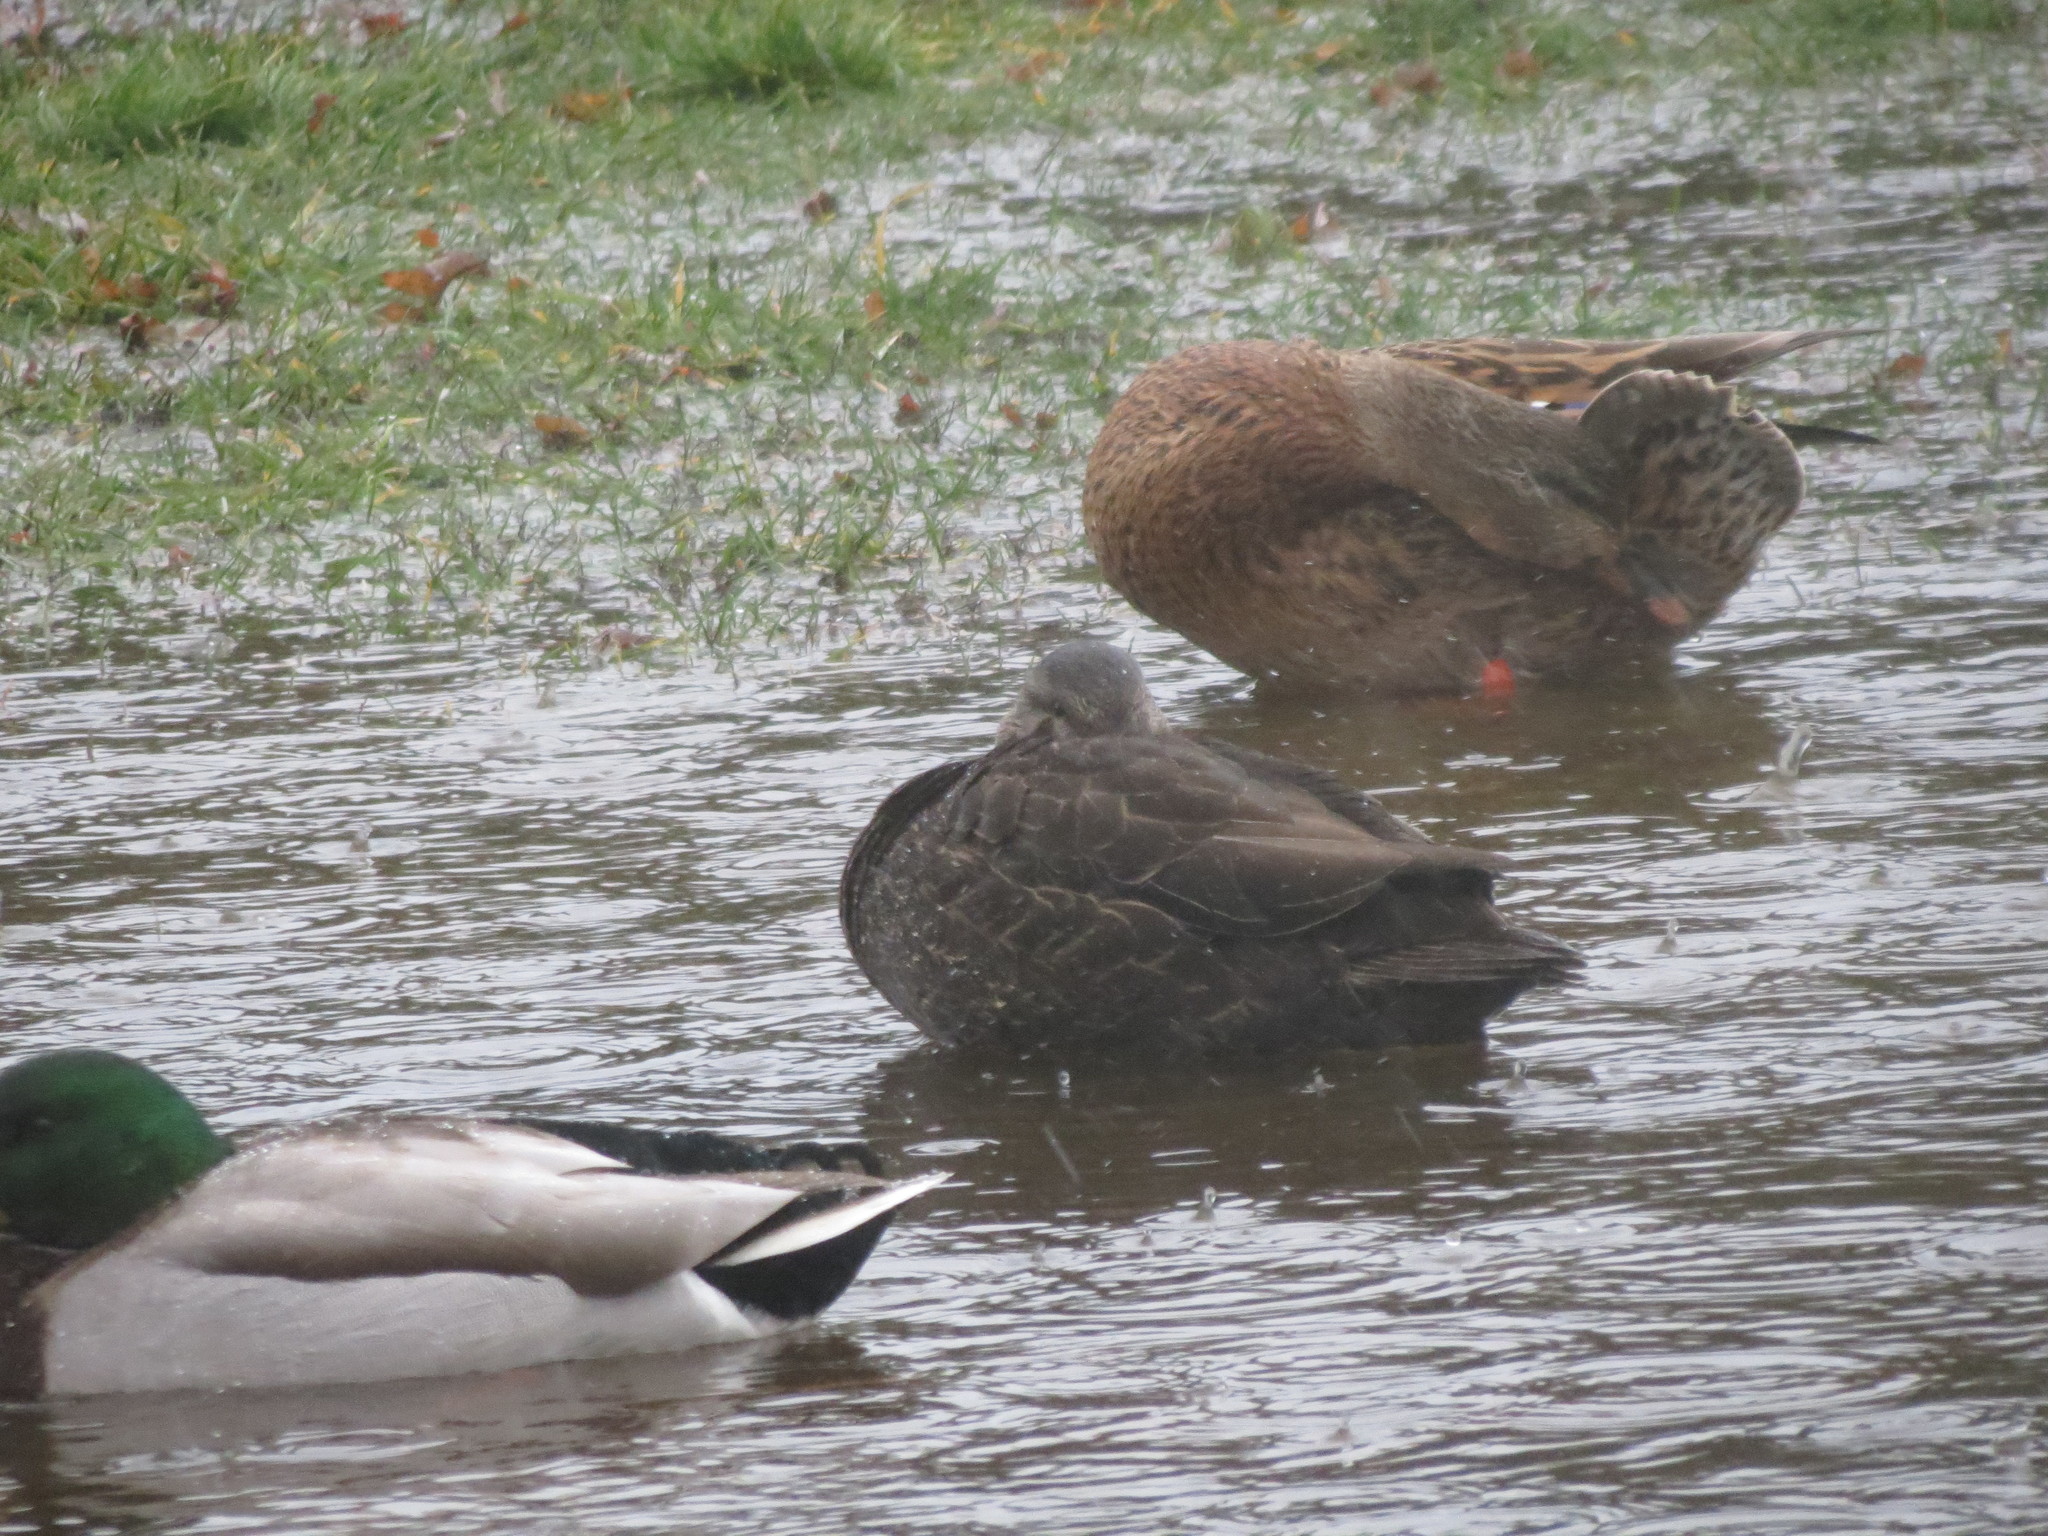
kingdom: Animalia
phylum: Chordata
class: Aves
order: Anseriformes
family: Anatidae
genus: Anas
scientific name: Anas rubripes
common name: American black duck
